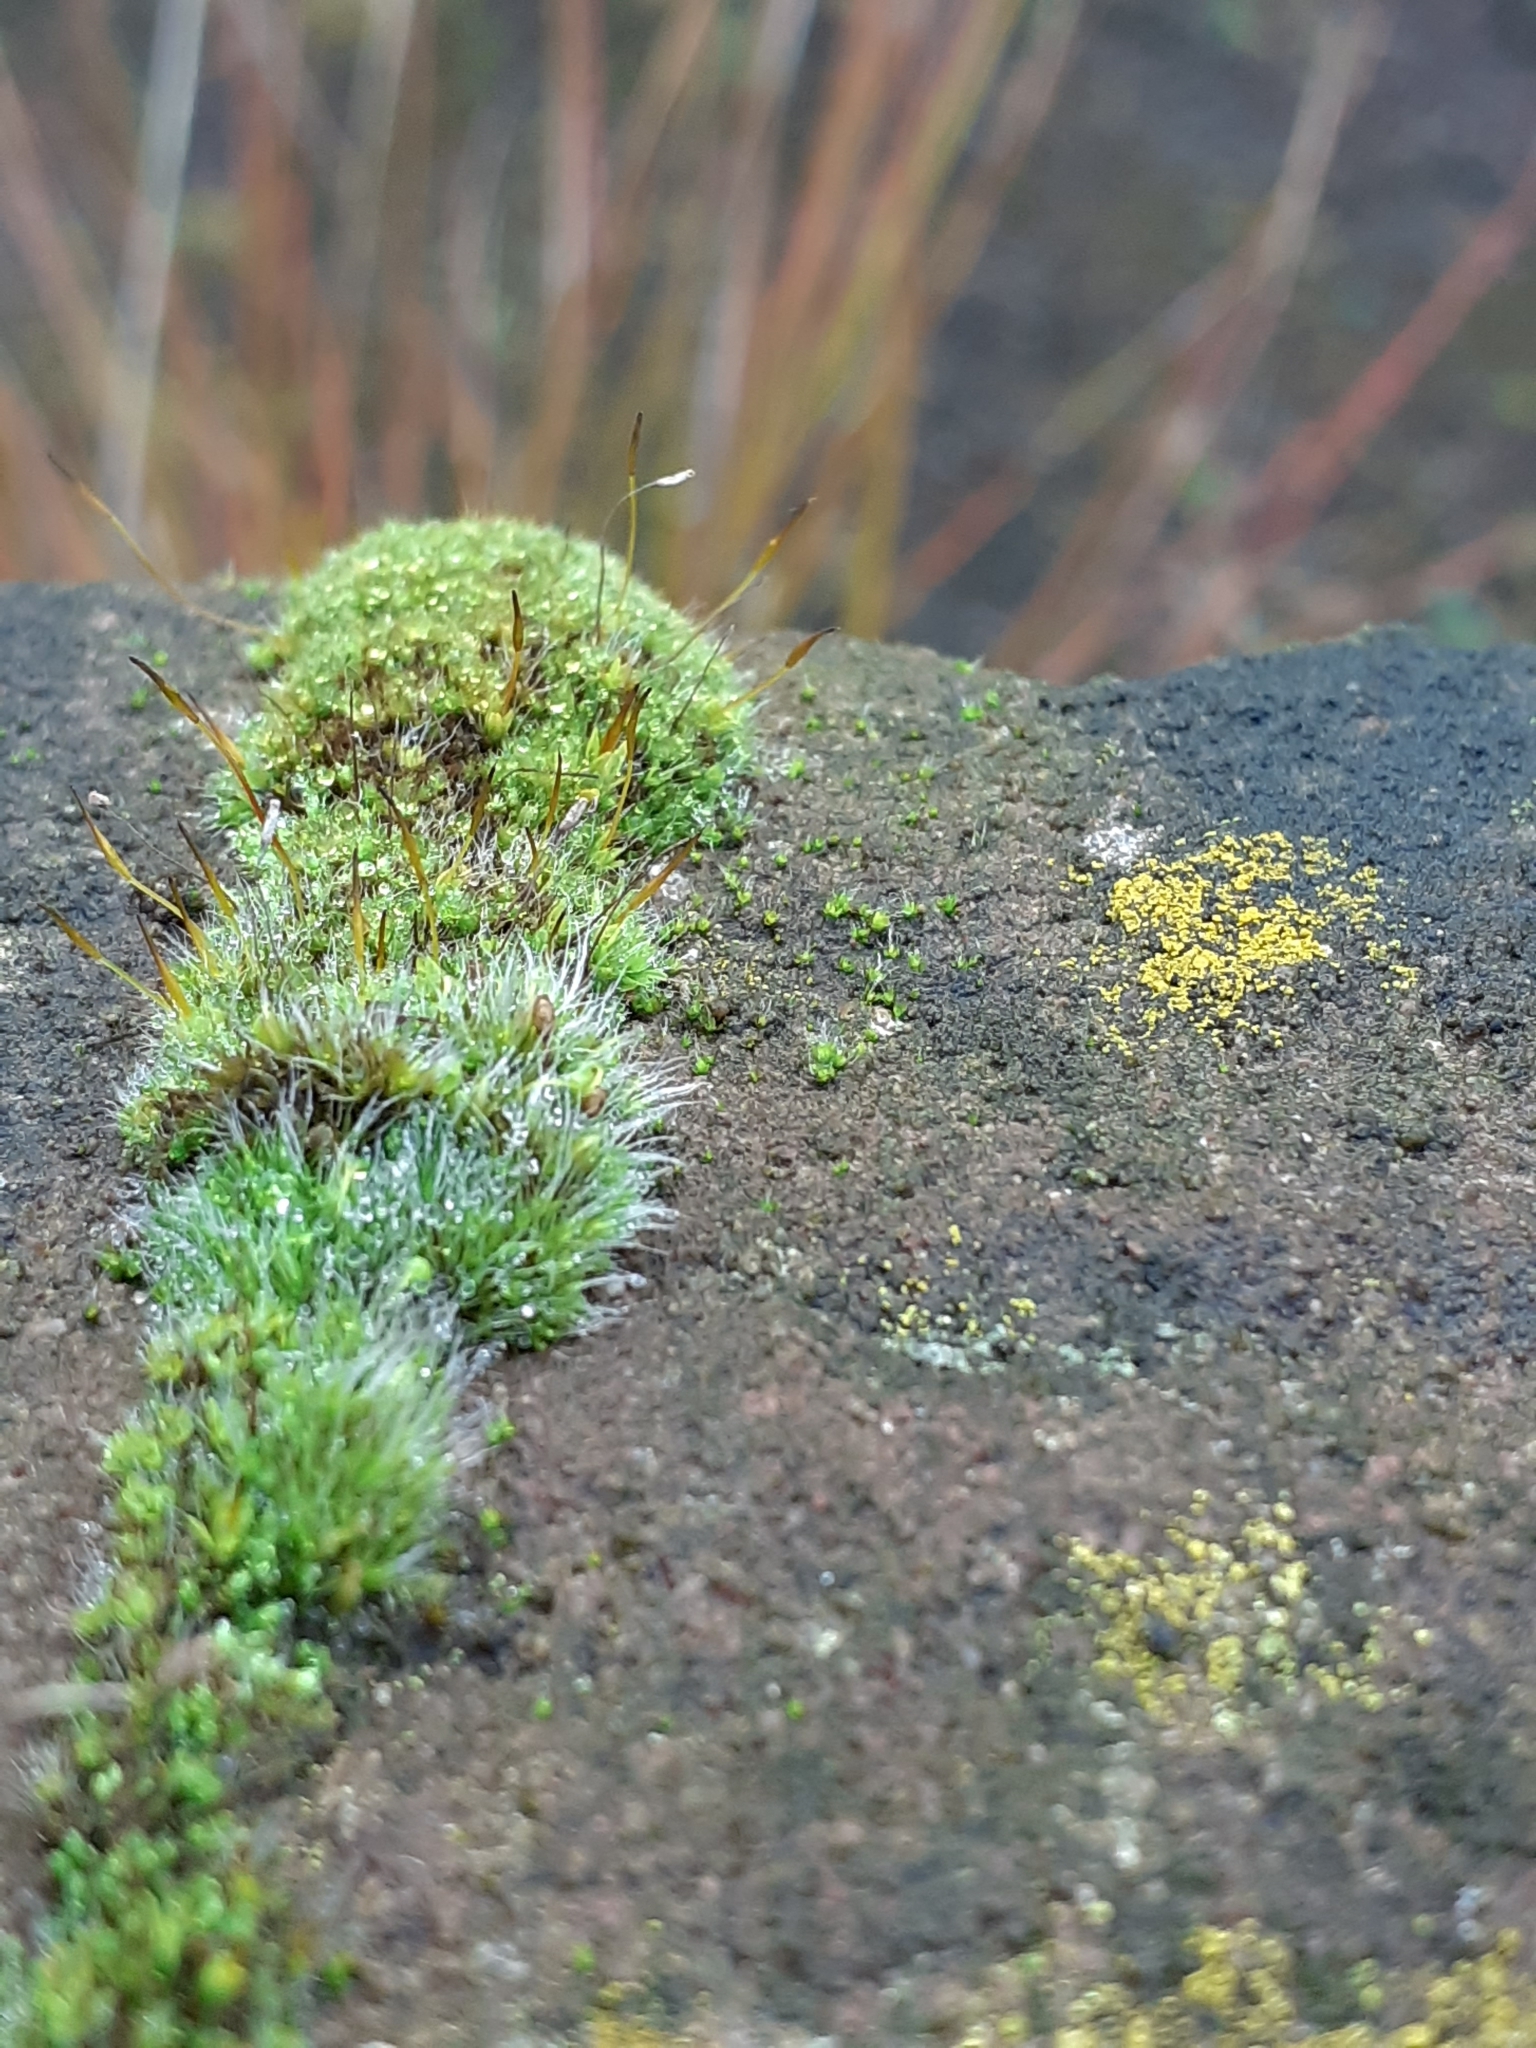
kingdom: Plantae
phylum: Bryophyta
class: Bryopsida
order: Grimmiales
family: Grimmiaceae
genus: Grimmia
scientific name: Grimmia pulvinata
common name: Grey-cushioned grimmia
